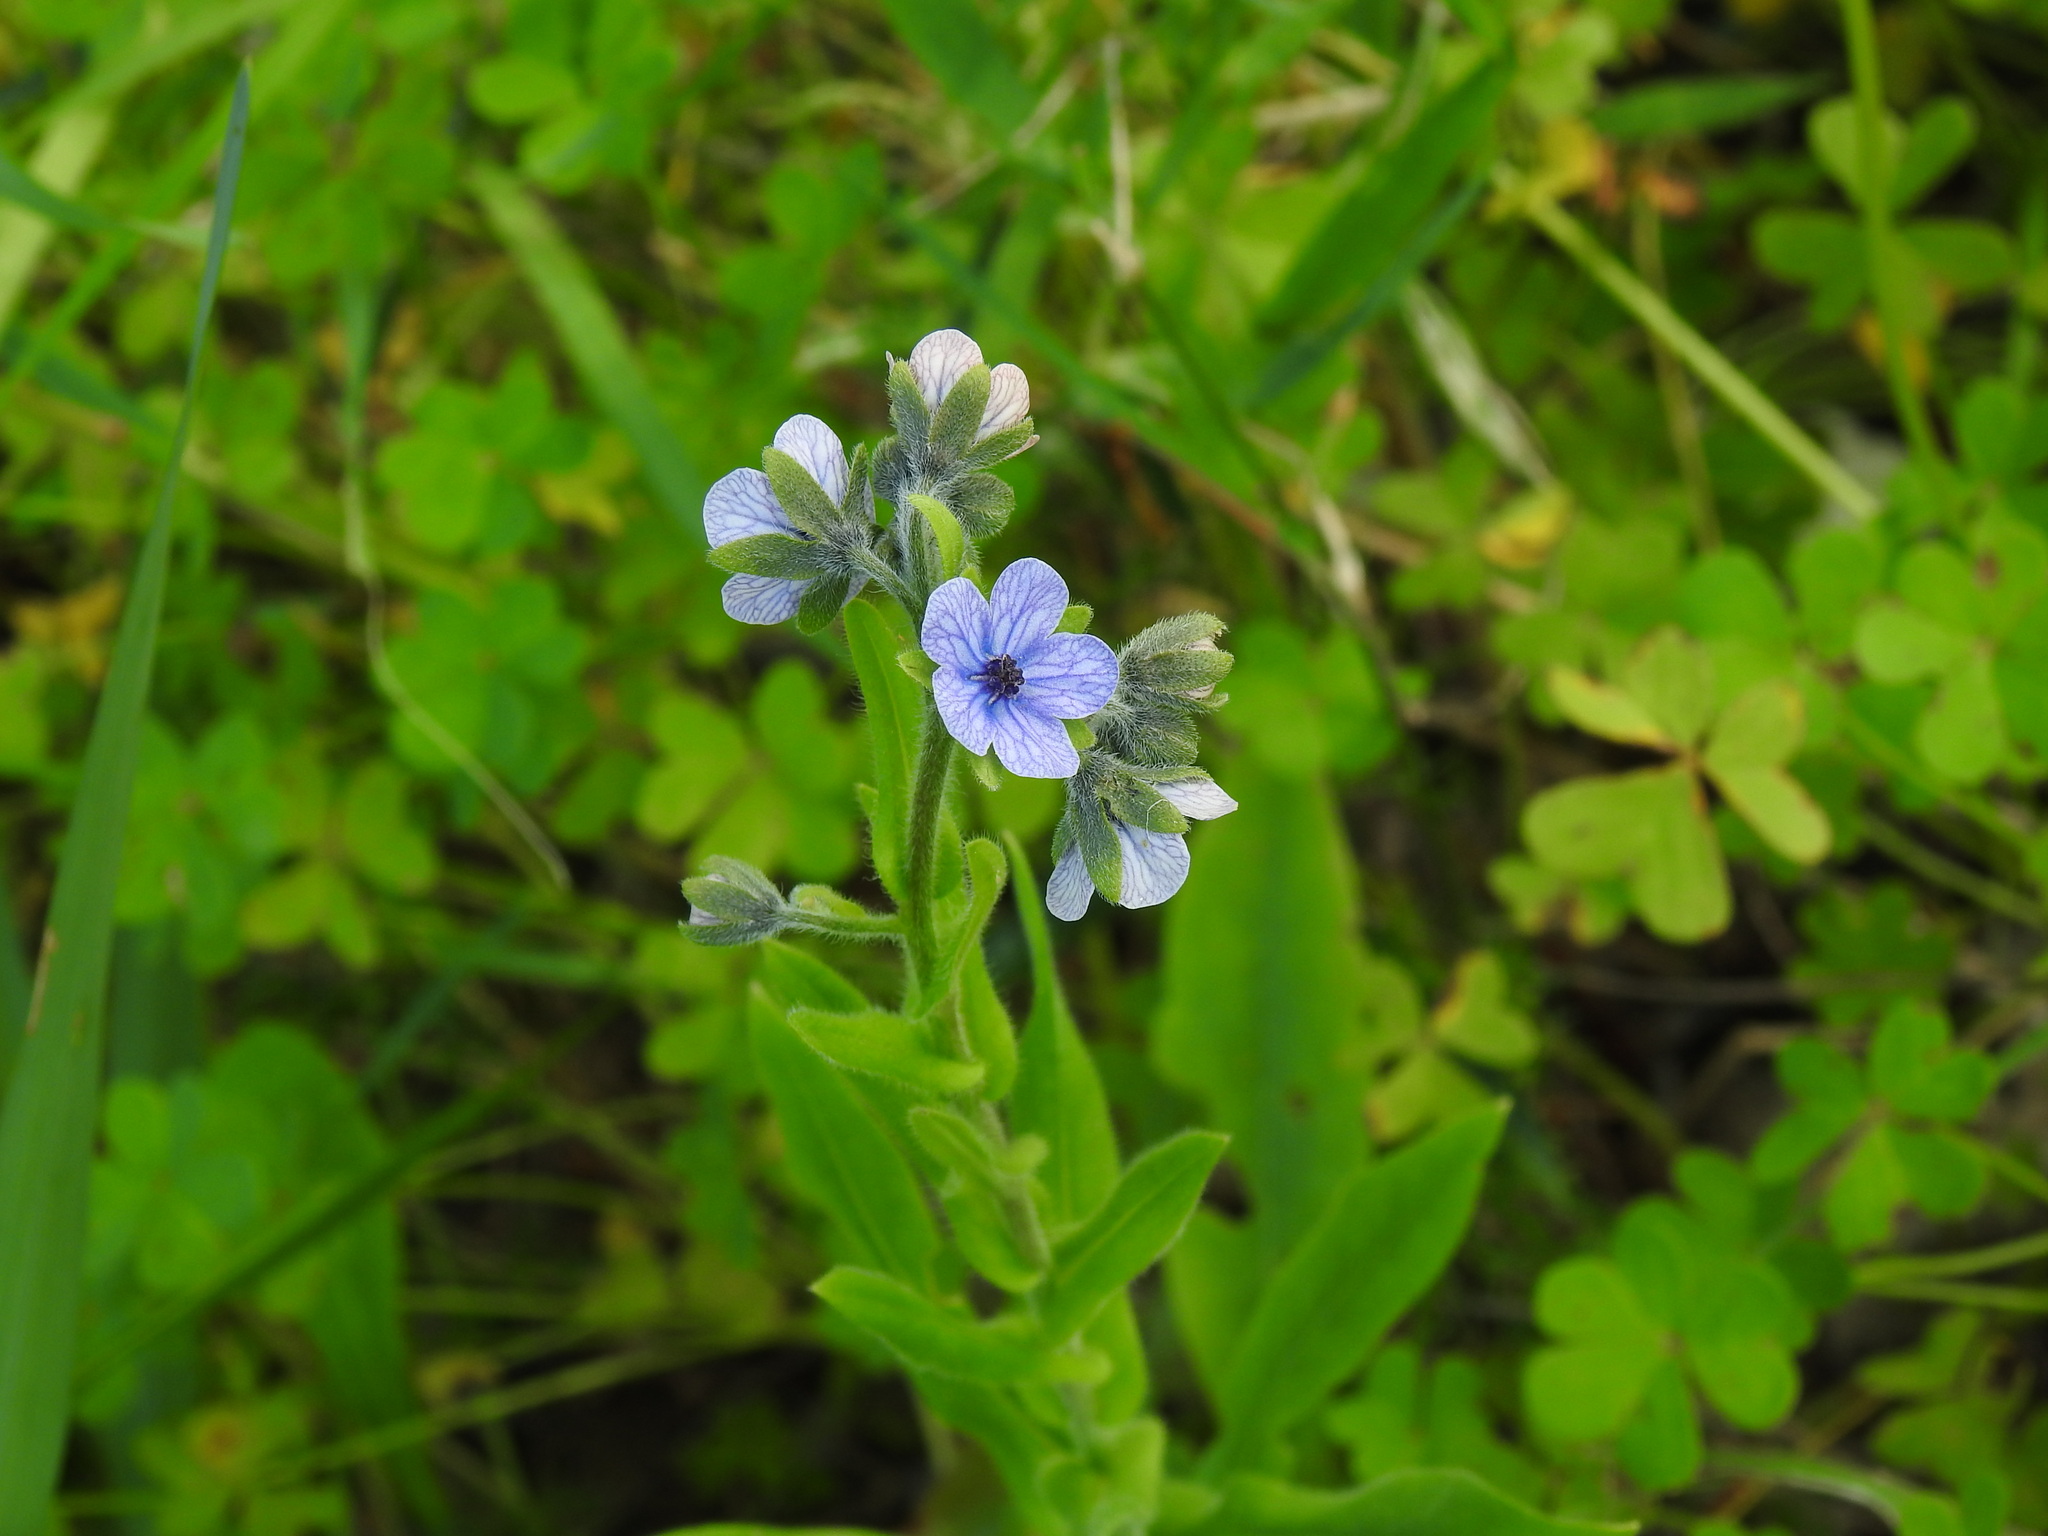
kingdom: Plantae
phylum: Tracheophyta
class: Magnoliopsida
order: Boraginales
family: Boraginaceae
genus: Cynoglossum
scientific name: Cynoglossum creticum
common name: Blue hound's tongue
